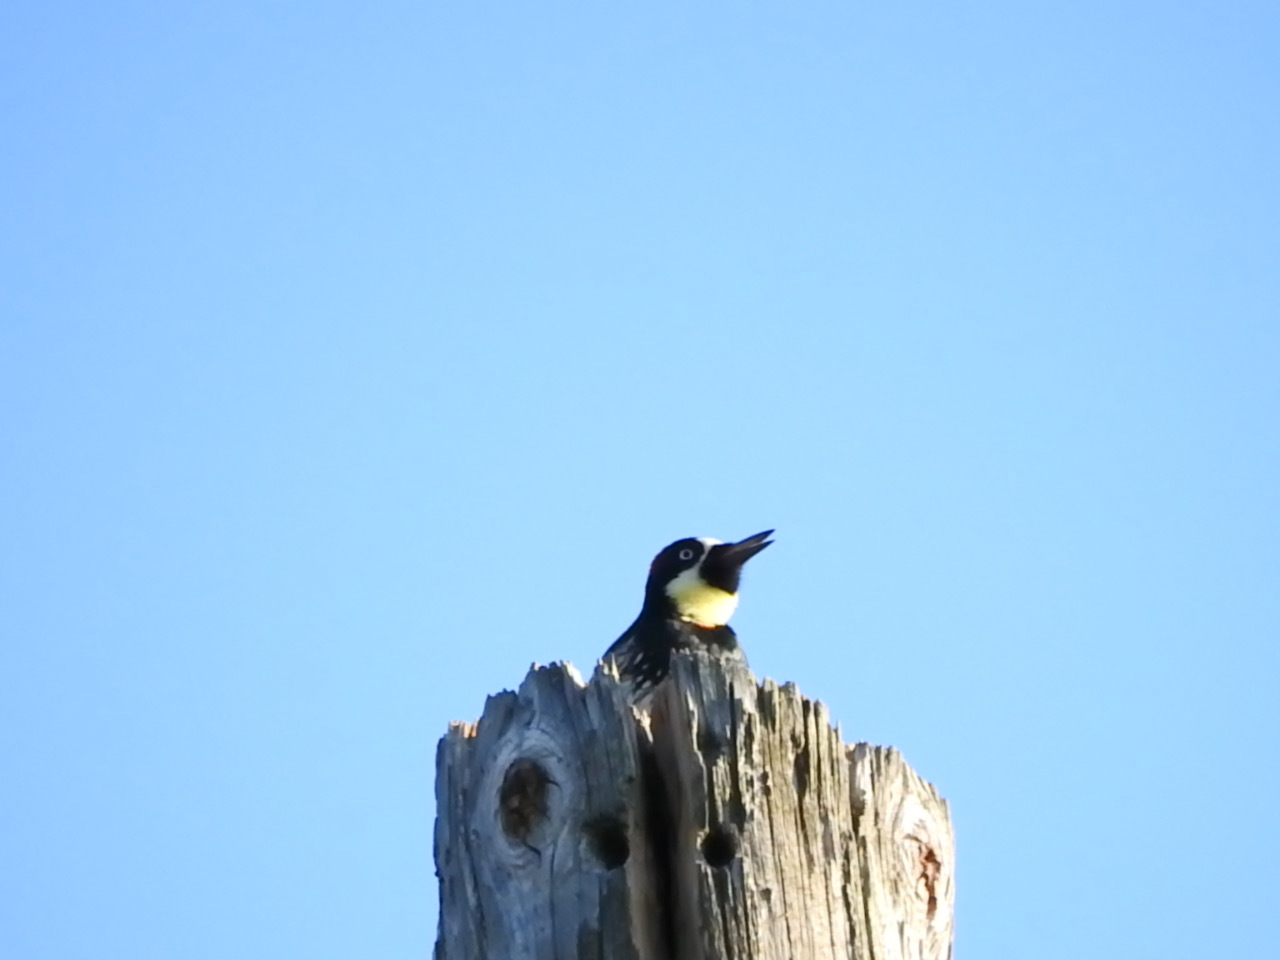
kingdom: Animalia
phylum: Chordata
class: Aves
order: Piciformes
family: Picidae
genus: Melanerpes
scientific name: Melanerpes formicivorus
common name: Acorn woodpecker
